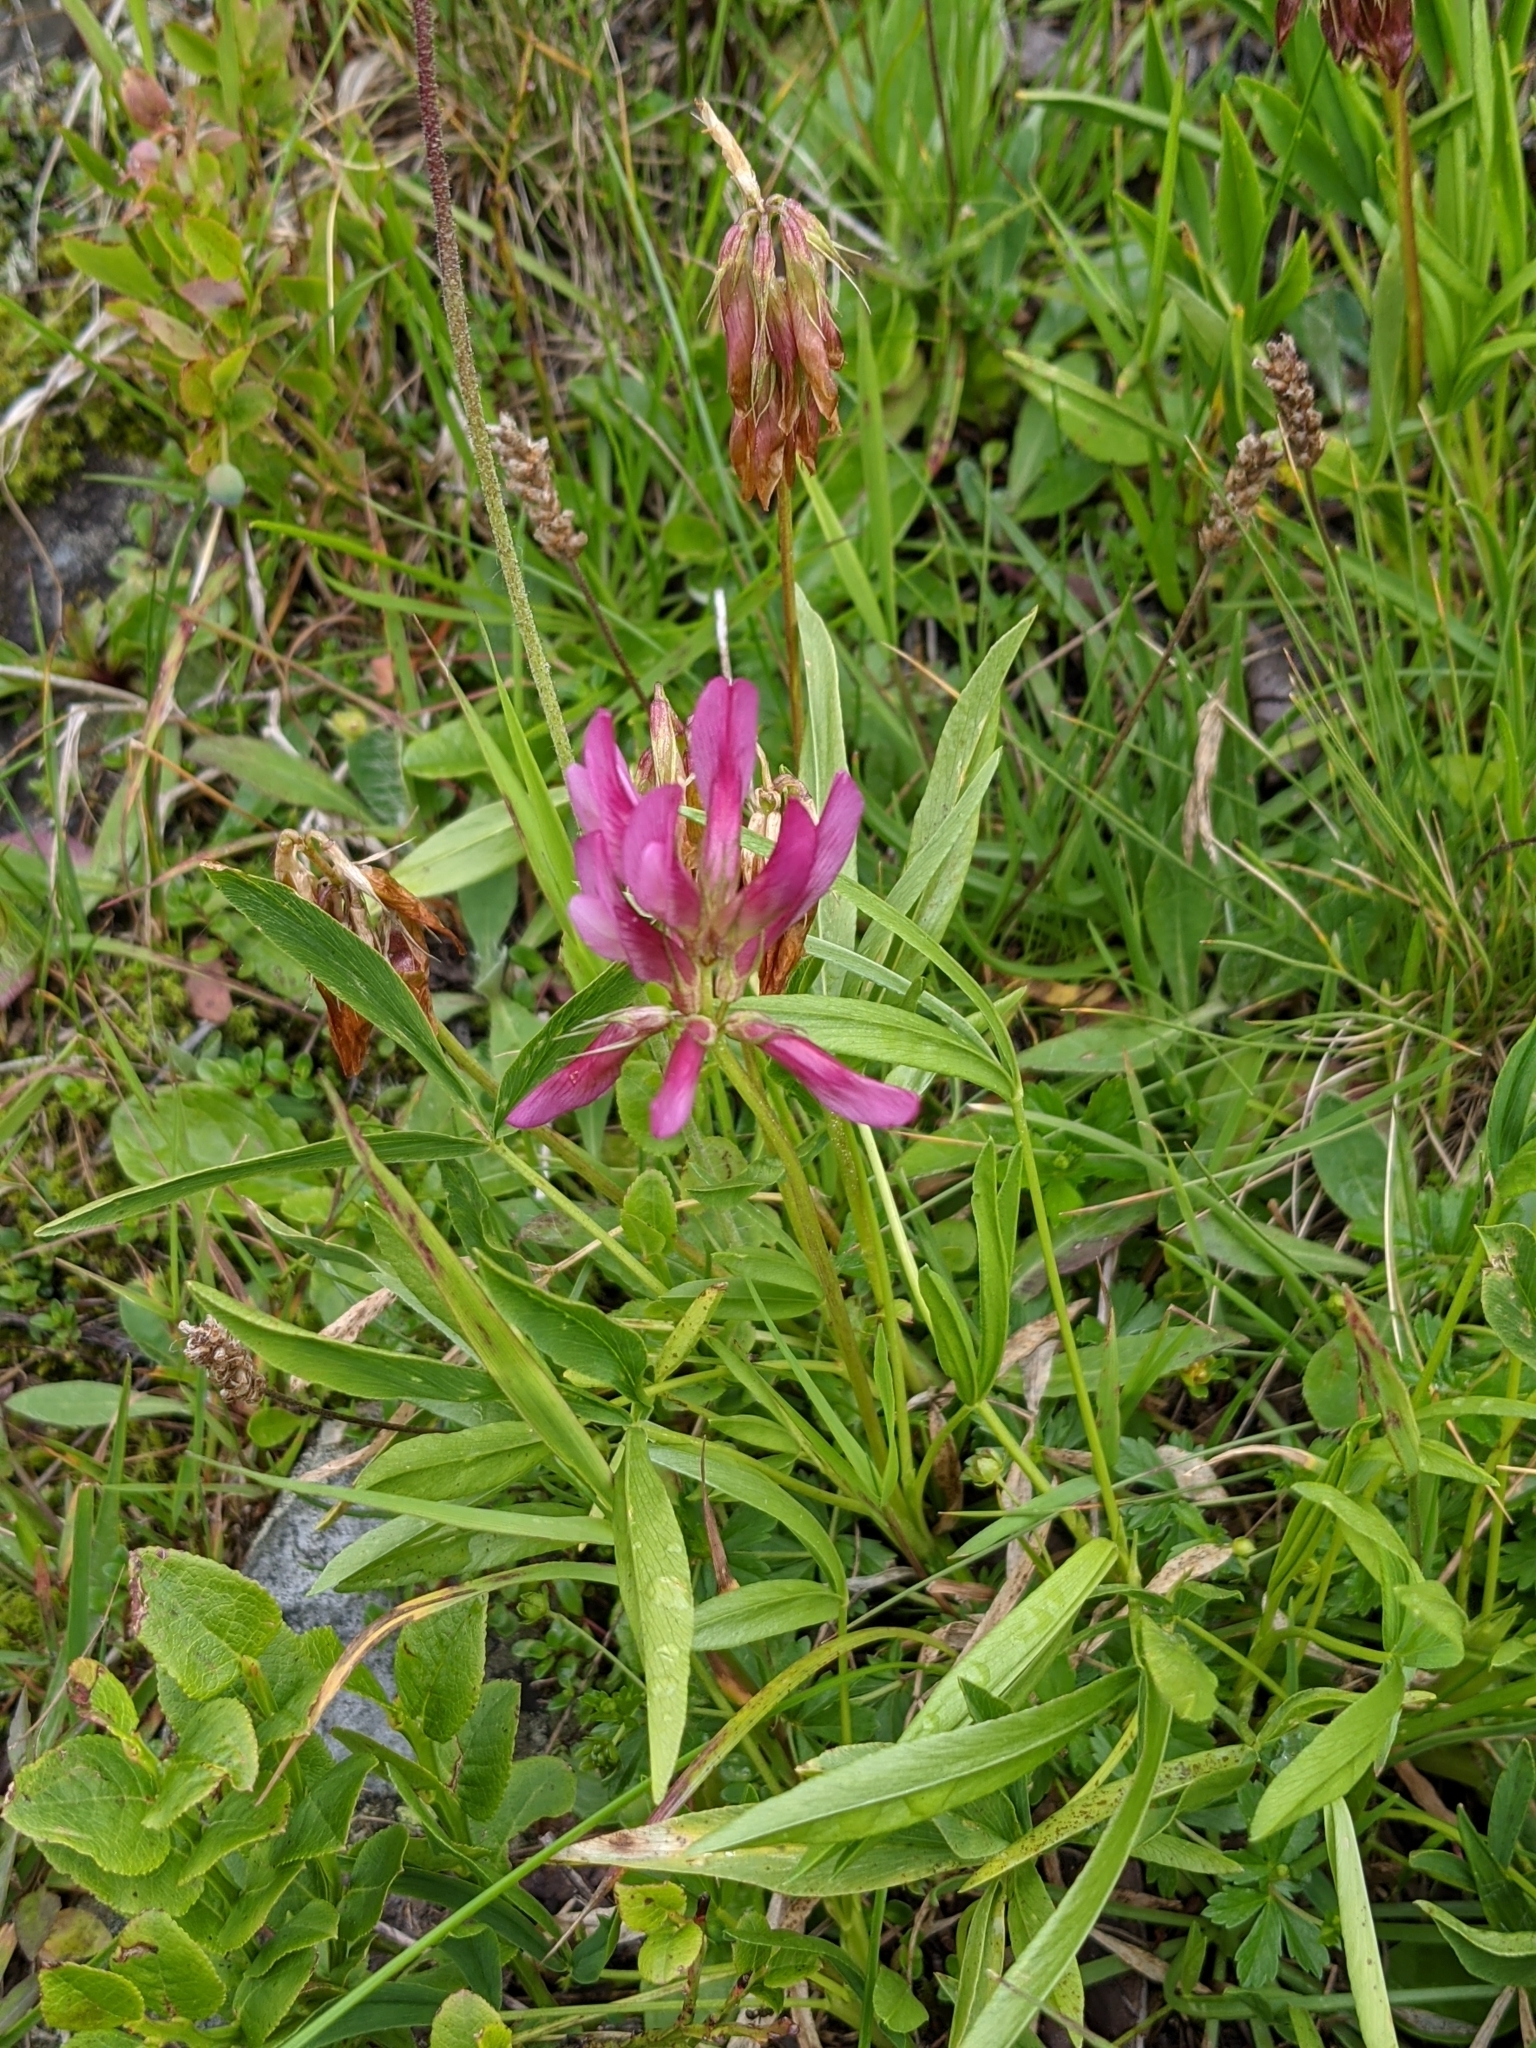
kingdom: Plantae
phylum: Tracheophyta
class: Magnoliopsida
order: Fabales
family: Fabaceae
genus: Trifolium
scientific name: Trifolium alpinum
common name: Alpine clover
